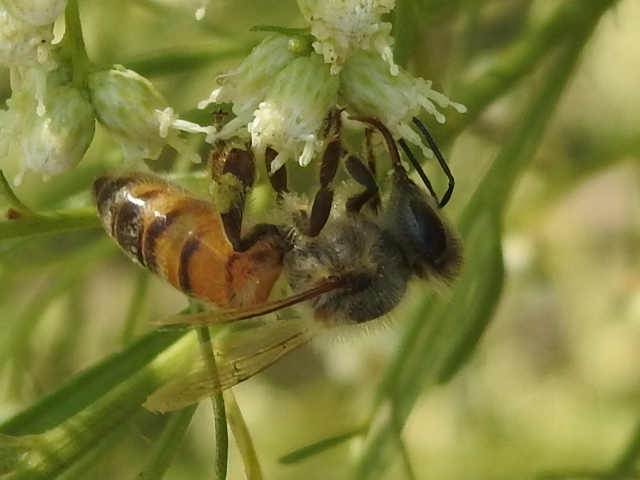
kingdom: Animalia
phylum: Arthropoda
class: Insecta
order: Hymenoptera
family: Apidae
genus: Apis
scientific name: Apis mellifera
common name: Honey bee
